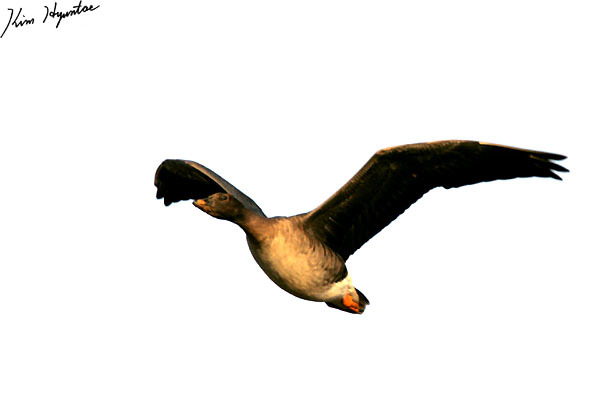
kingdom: Animalia
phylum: Chordata
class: Aves
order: Anseriformes
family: Anatidae
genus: Anser
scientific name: Anser fabalis
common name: Bean goose
